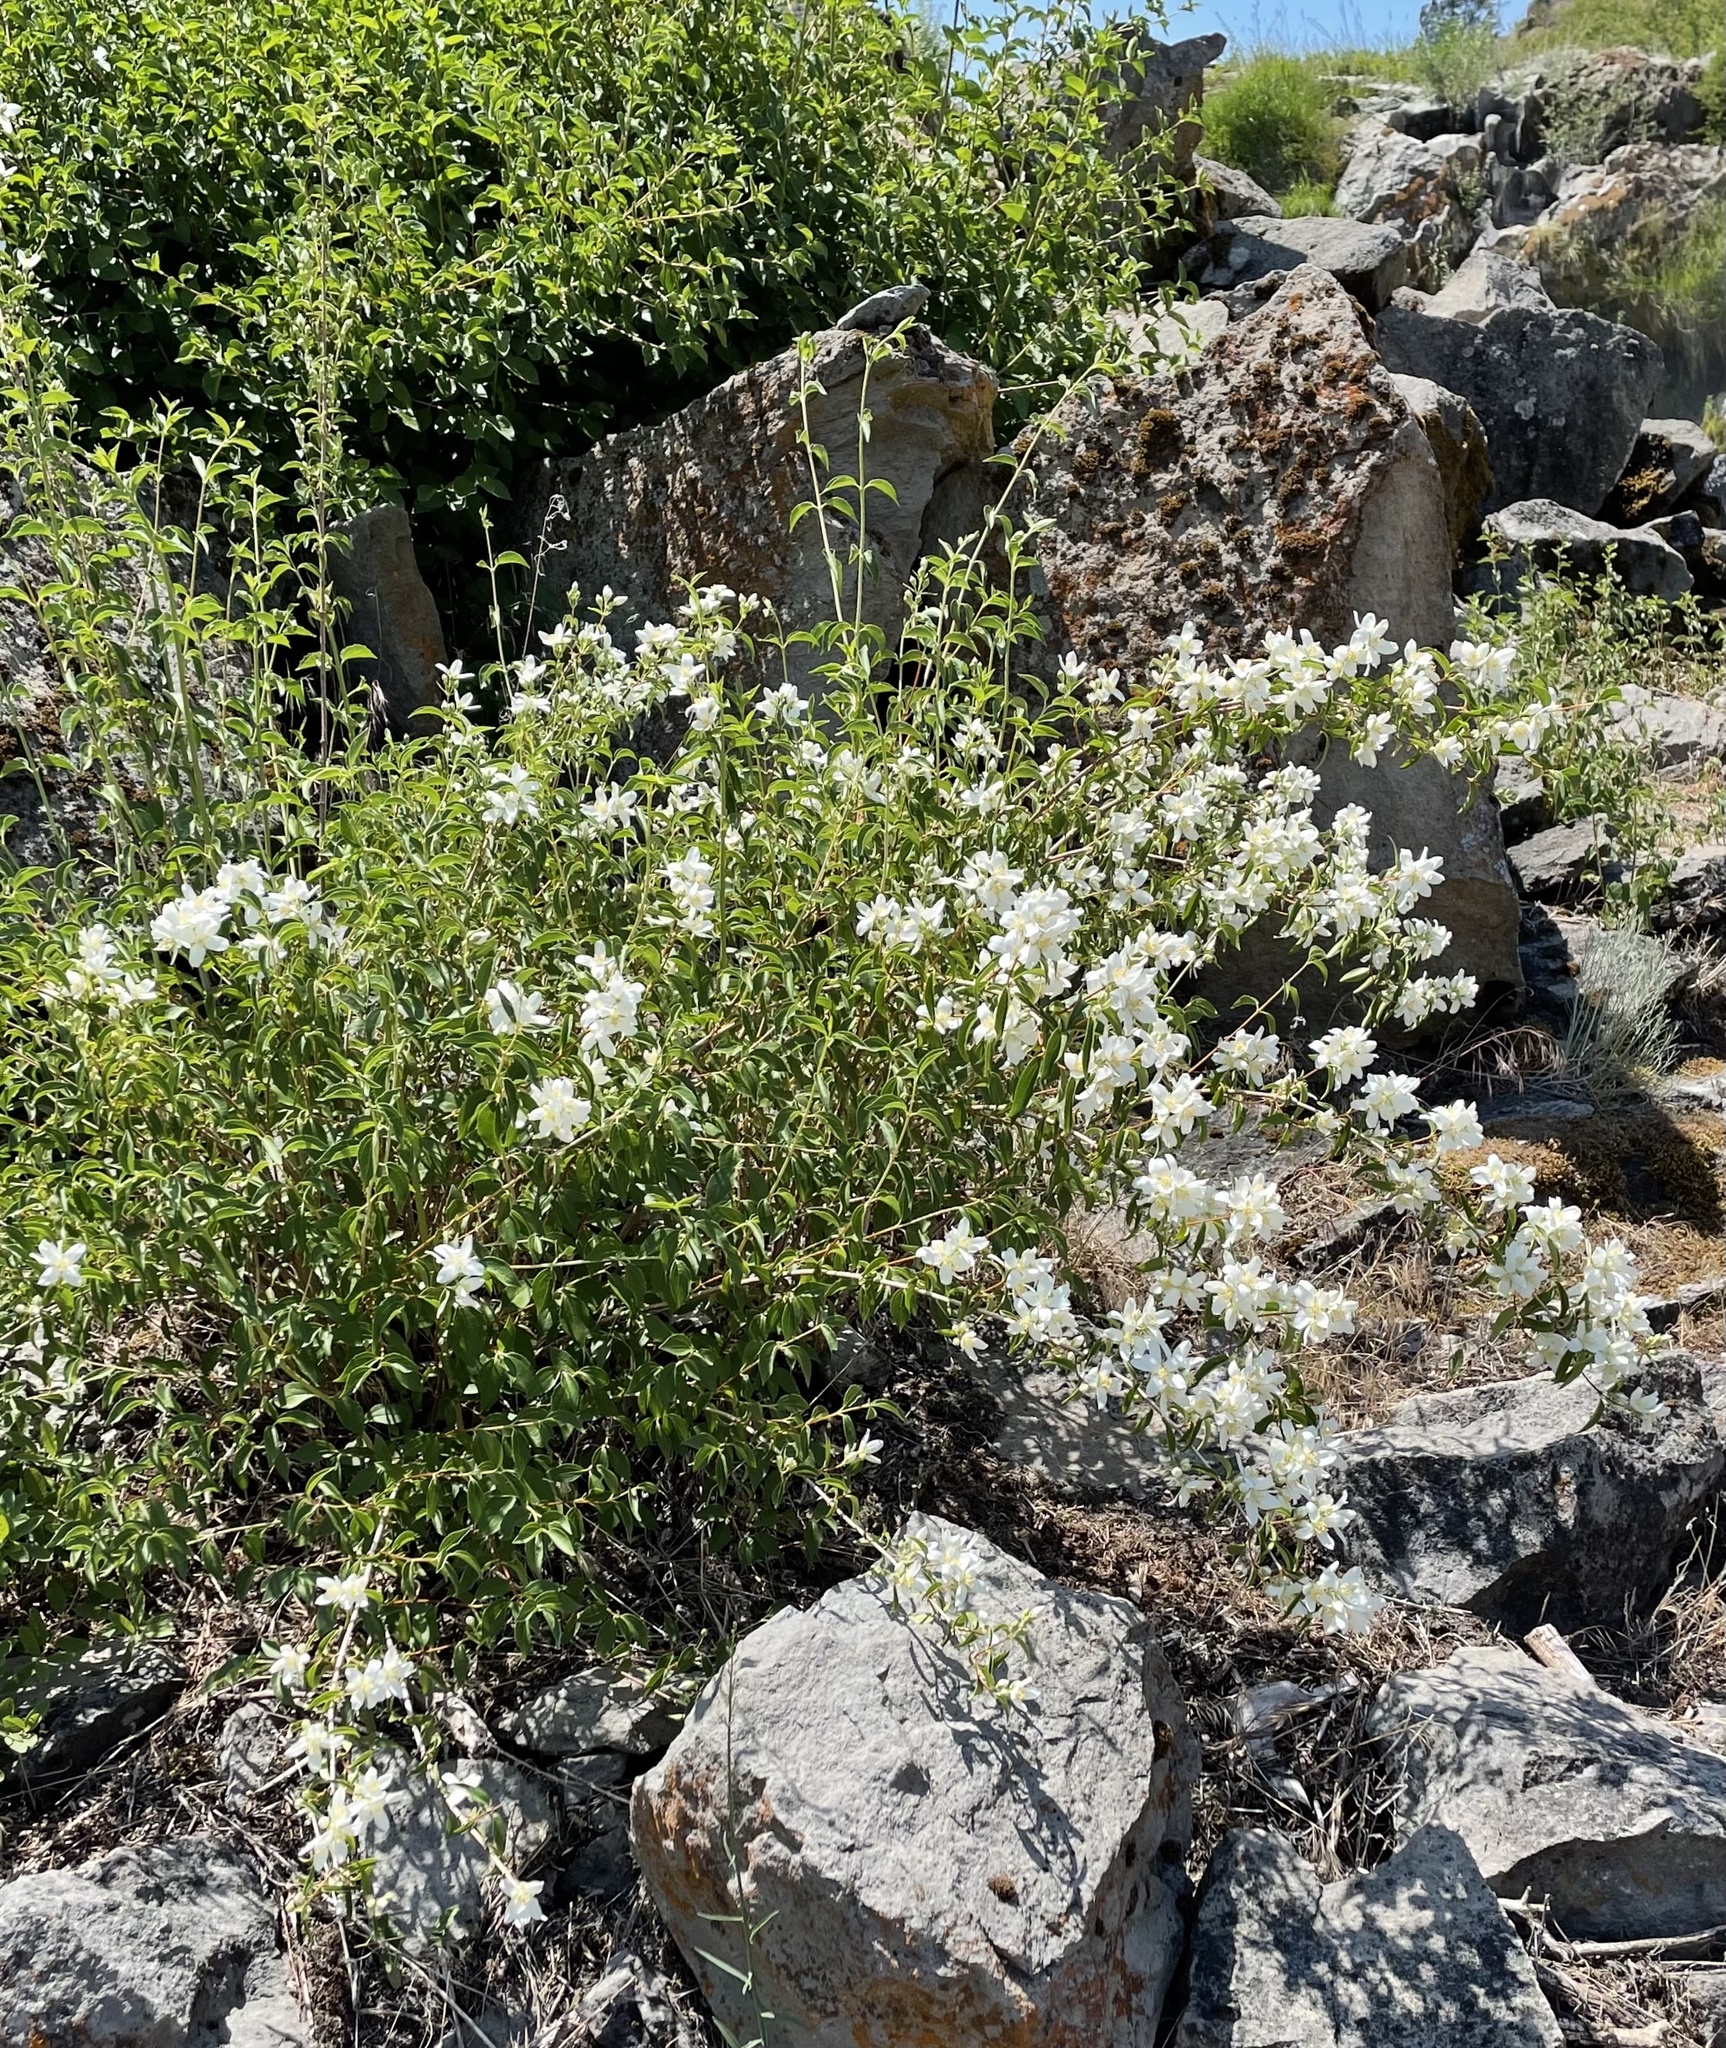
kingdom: Plantae
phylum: Tracheophyta
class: Magnoliopsida
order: Cornales
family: Hydrangeaceae
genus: Philadelphus
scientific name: Philadelphus lewisii
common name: Lewis's mock orange
